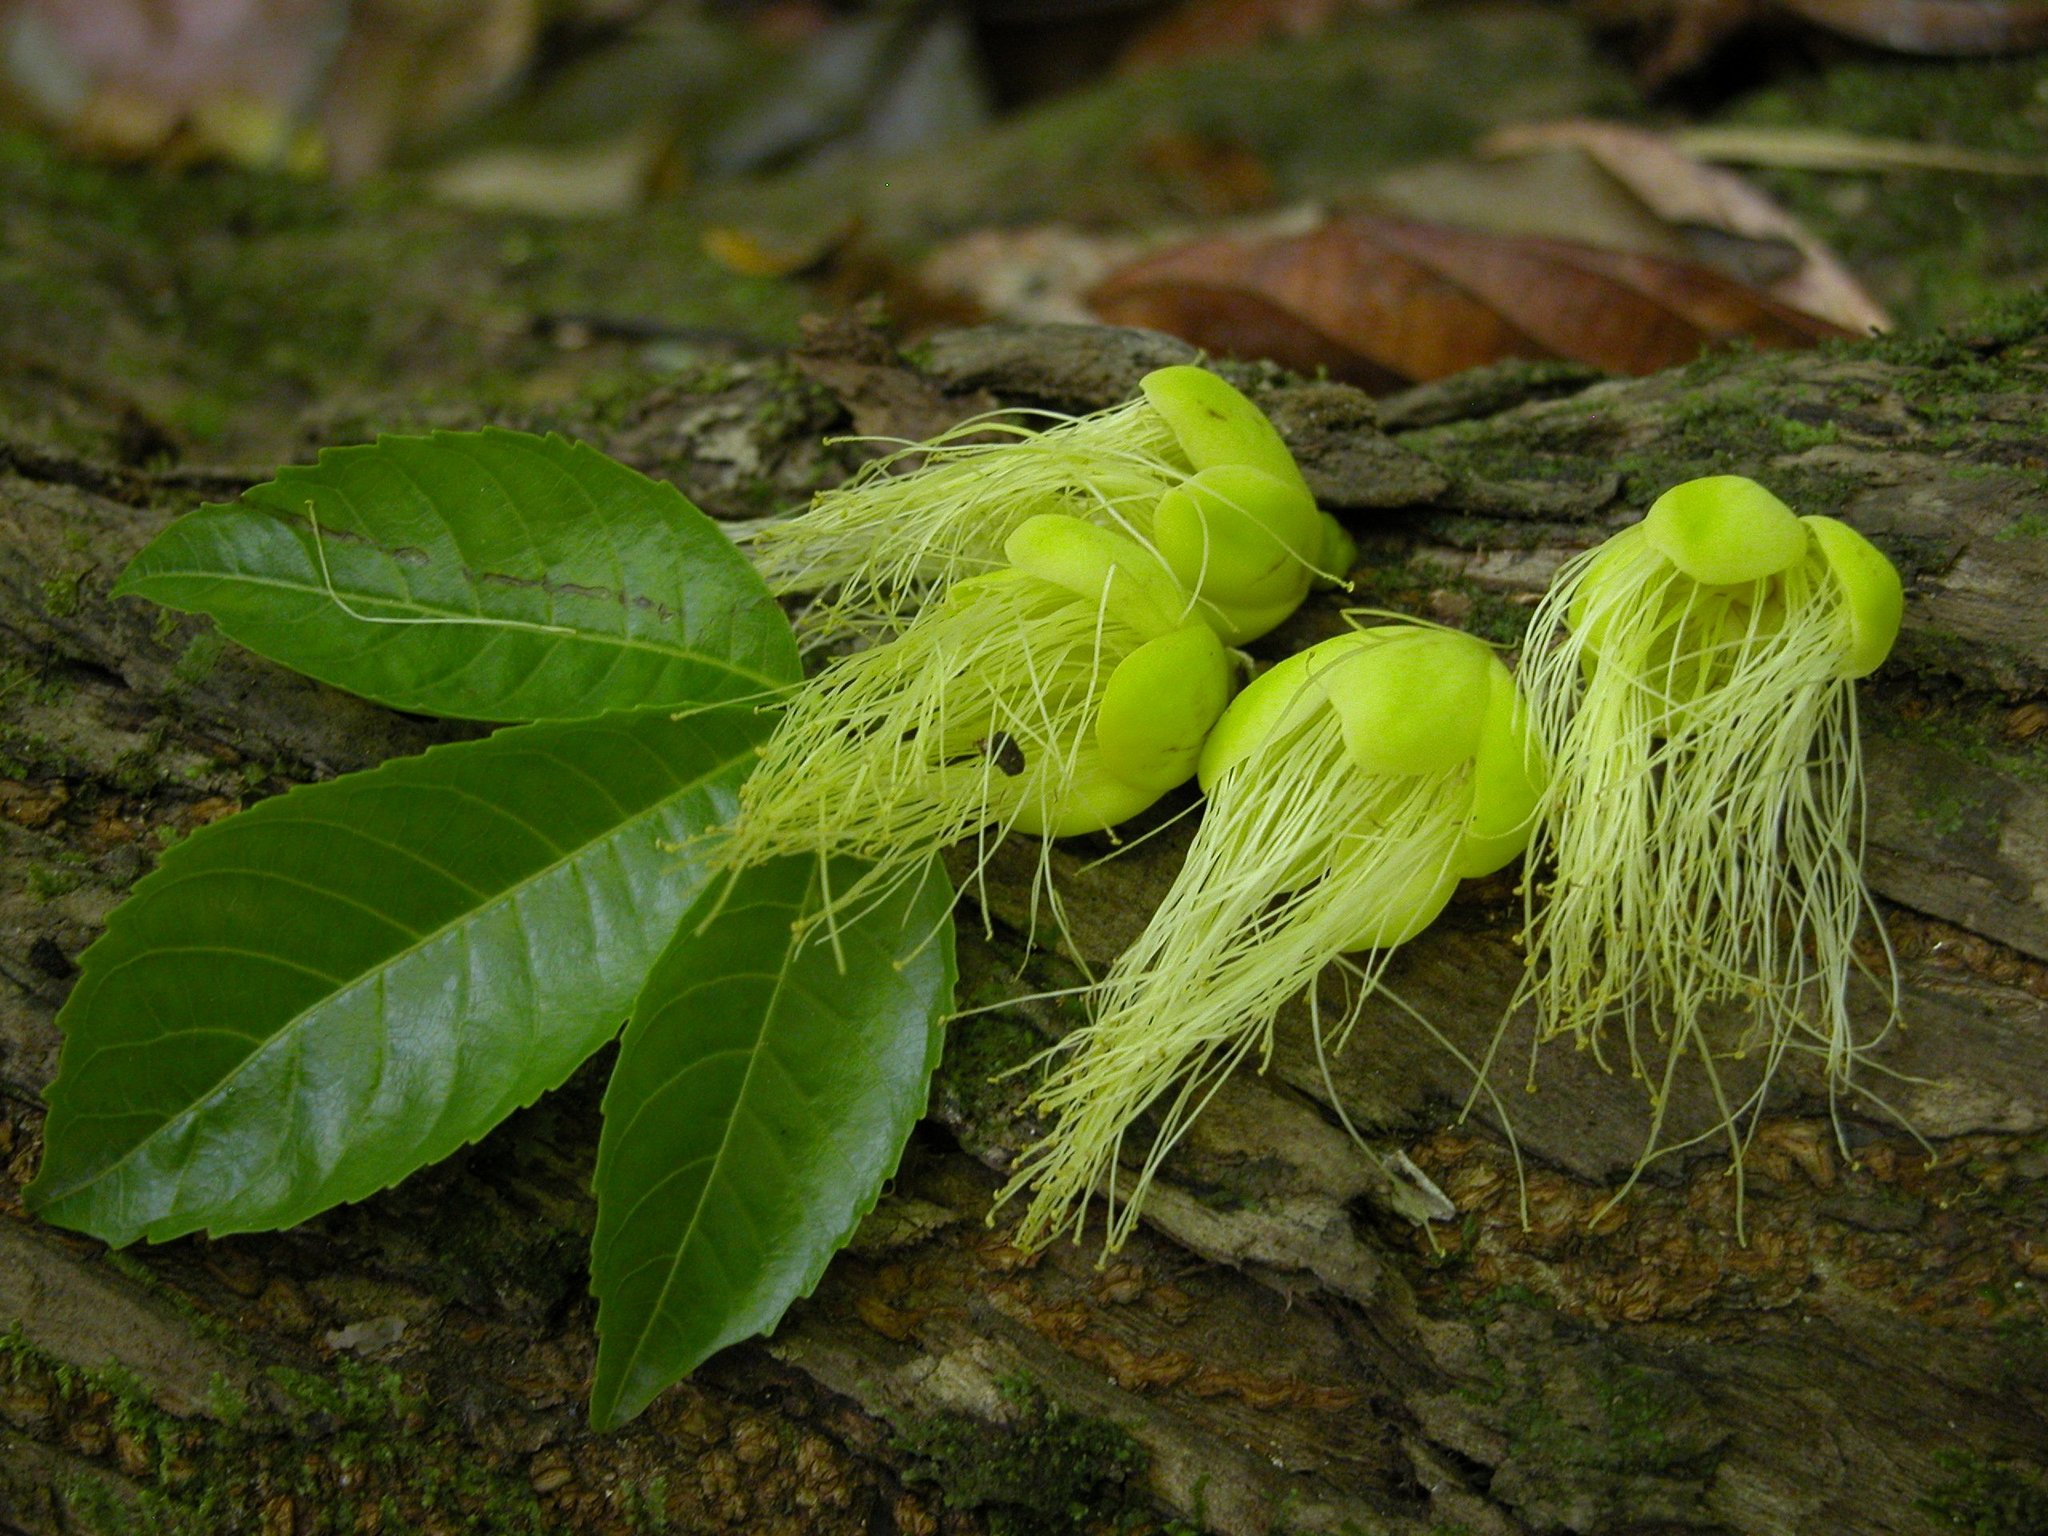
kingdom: Plantae
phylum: Tracheophyta
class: Magnoliopsida
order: Malpighiales
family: Caryocaraceae
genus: Caryocar
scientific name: Caryocar costaricense
